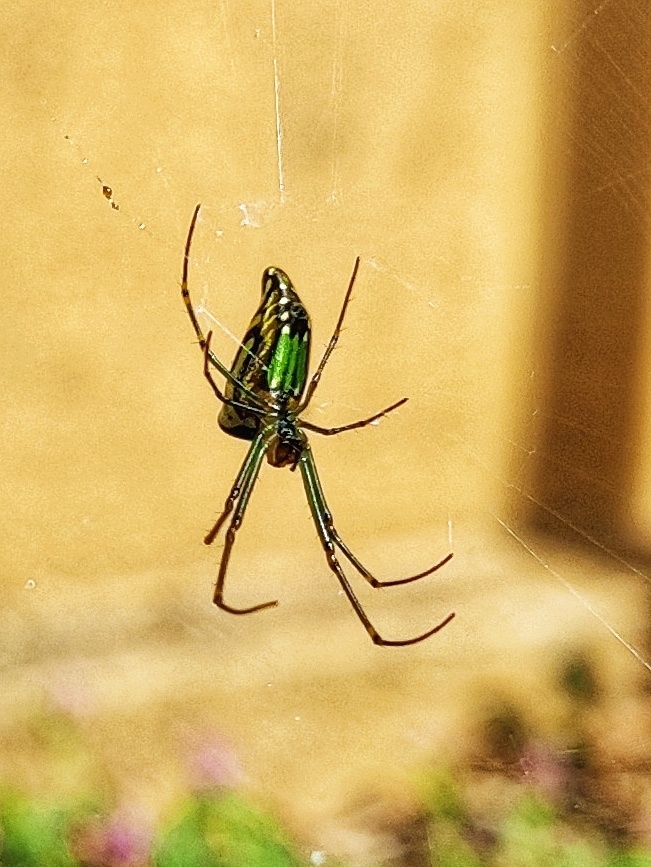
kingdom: Animalia
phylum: Arthropoda
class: Arachnida
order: Araneae
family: Tetragnathidae
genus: Leucauge
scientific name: Leucauge decorata
